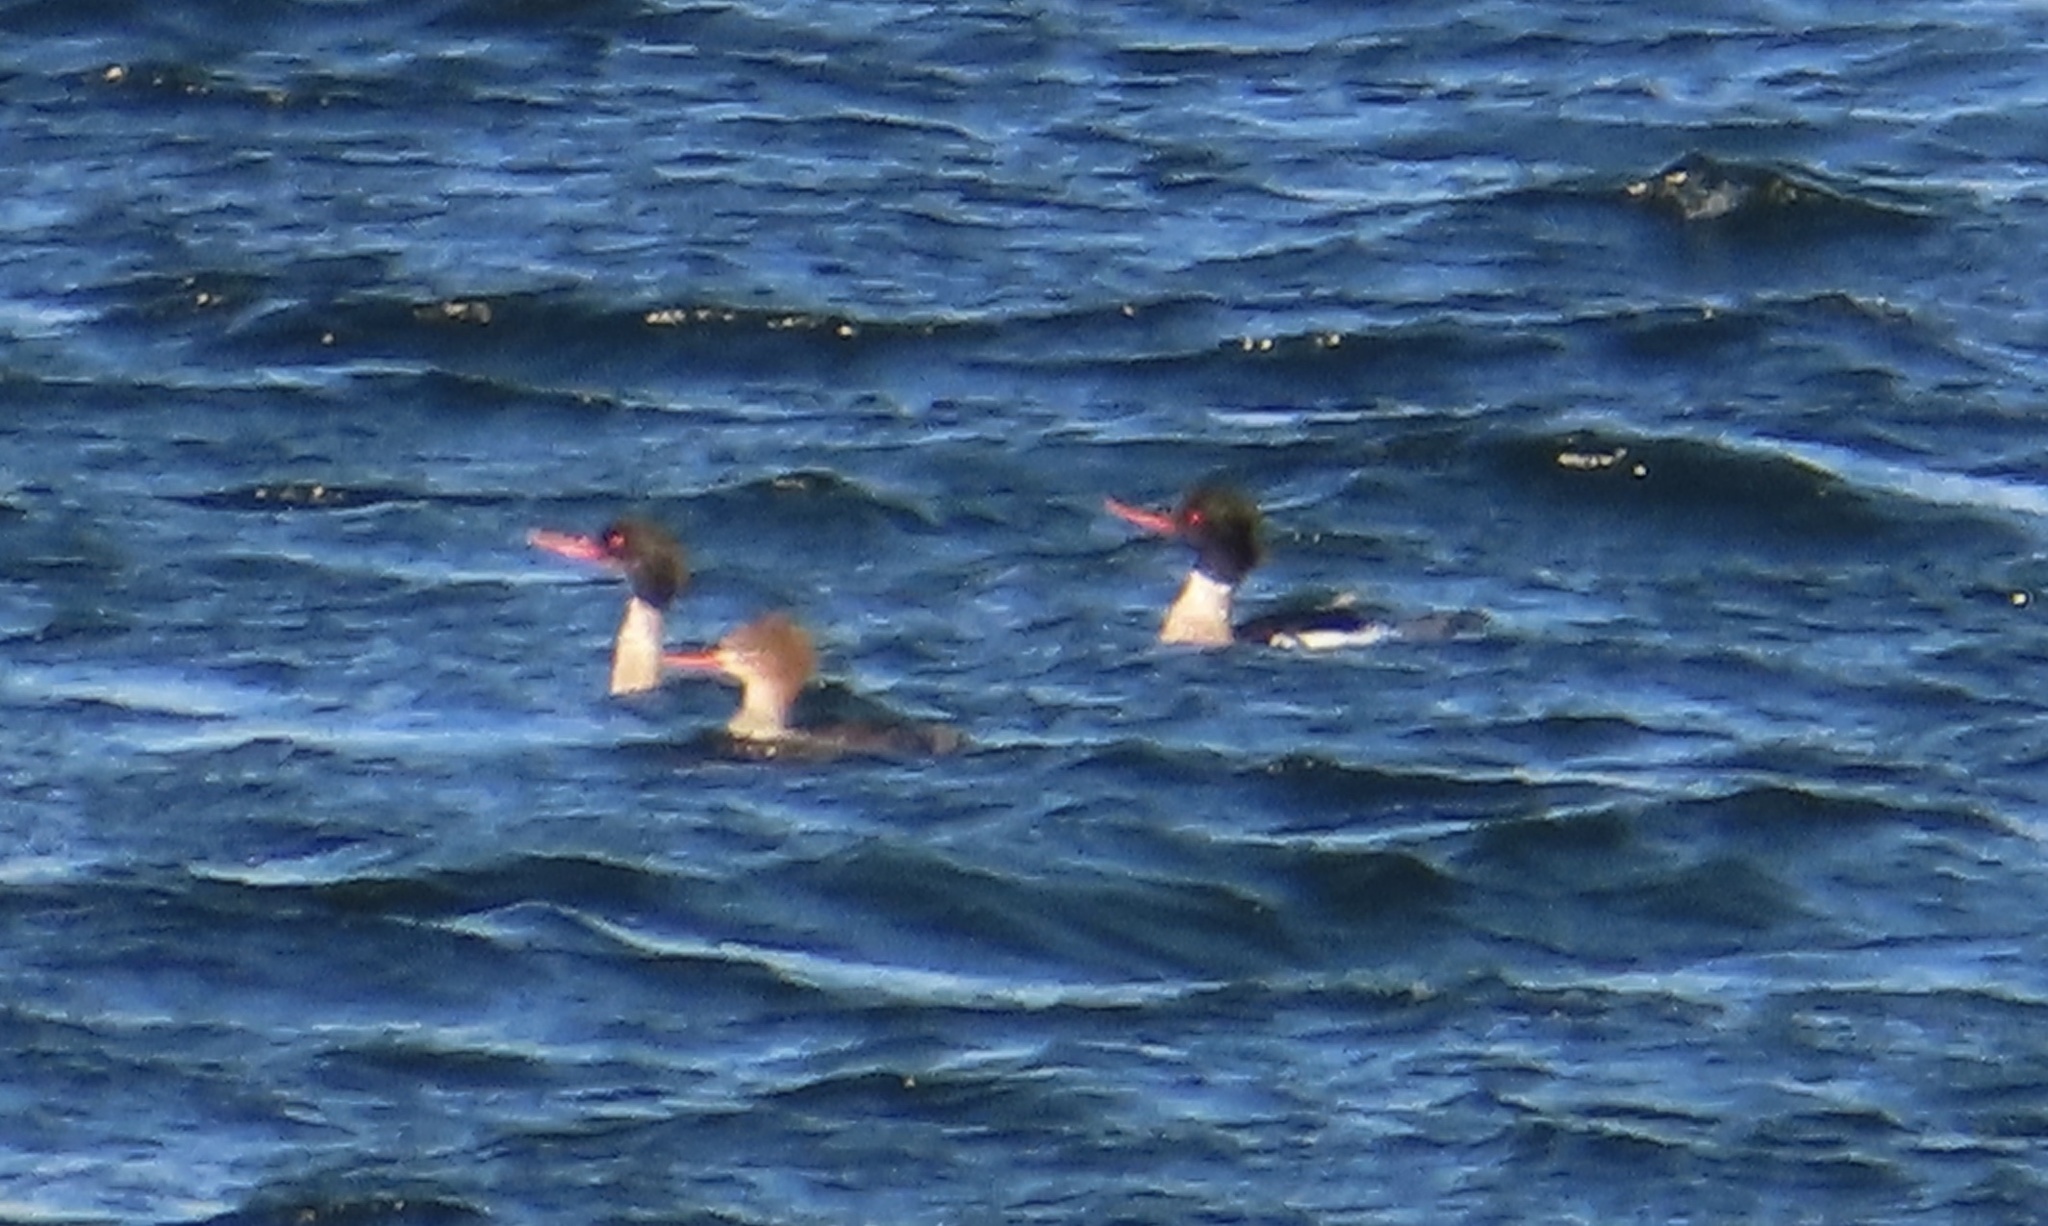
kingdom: Animalia
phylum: Chordata
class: Aves
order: Anseriformes
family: Anatidae
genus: Mergus
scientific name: Mergus serrator
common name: Red-breasted merganser
